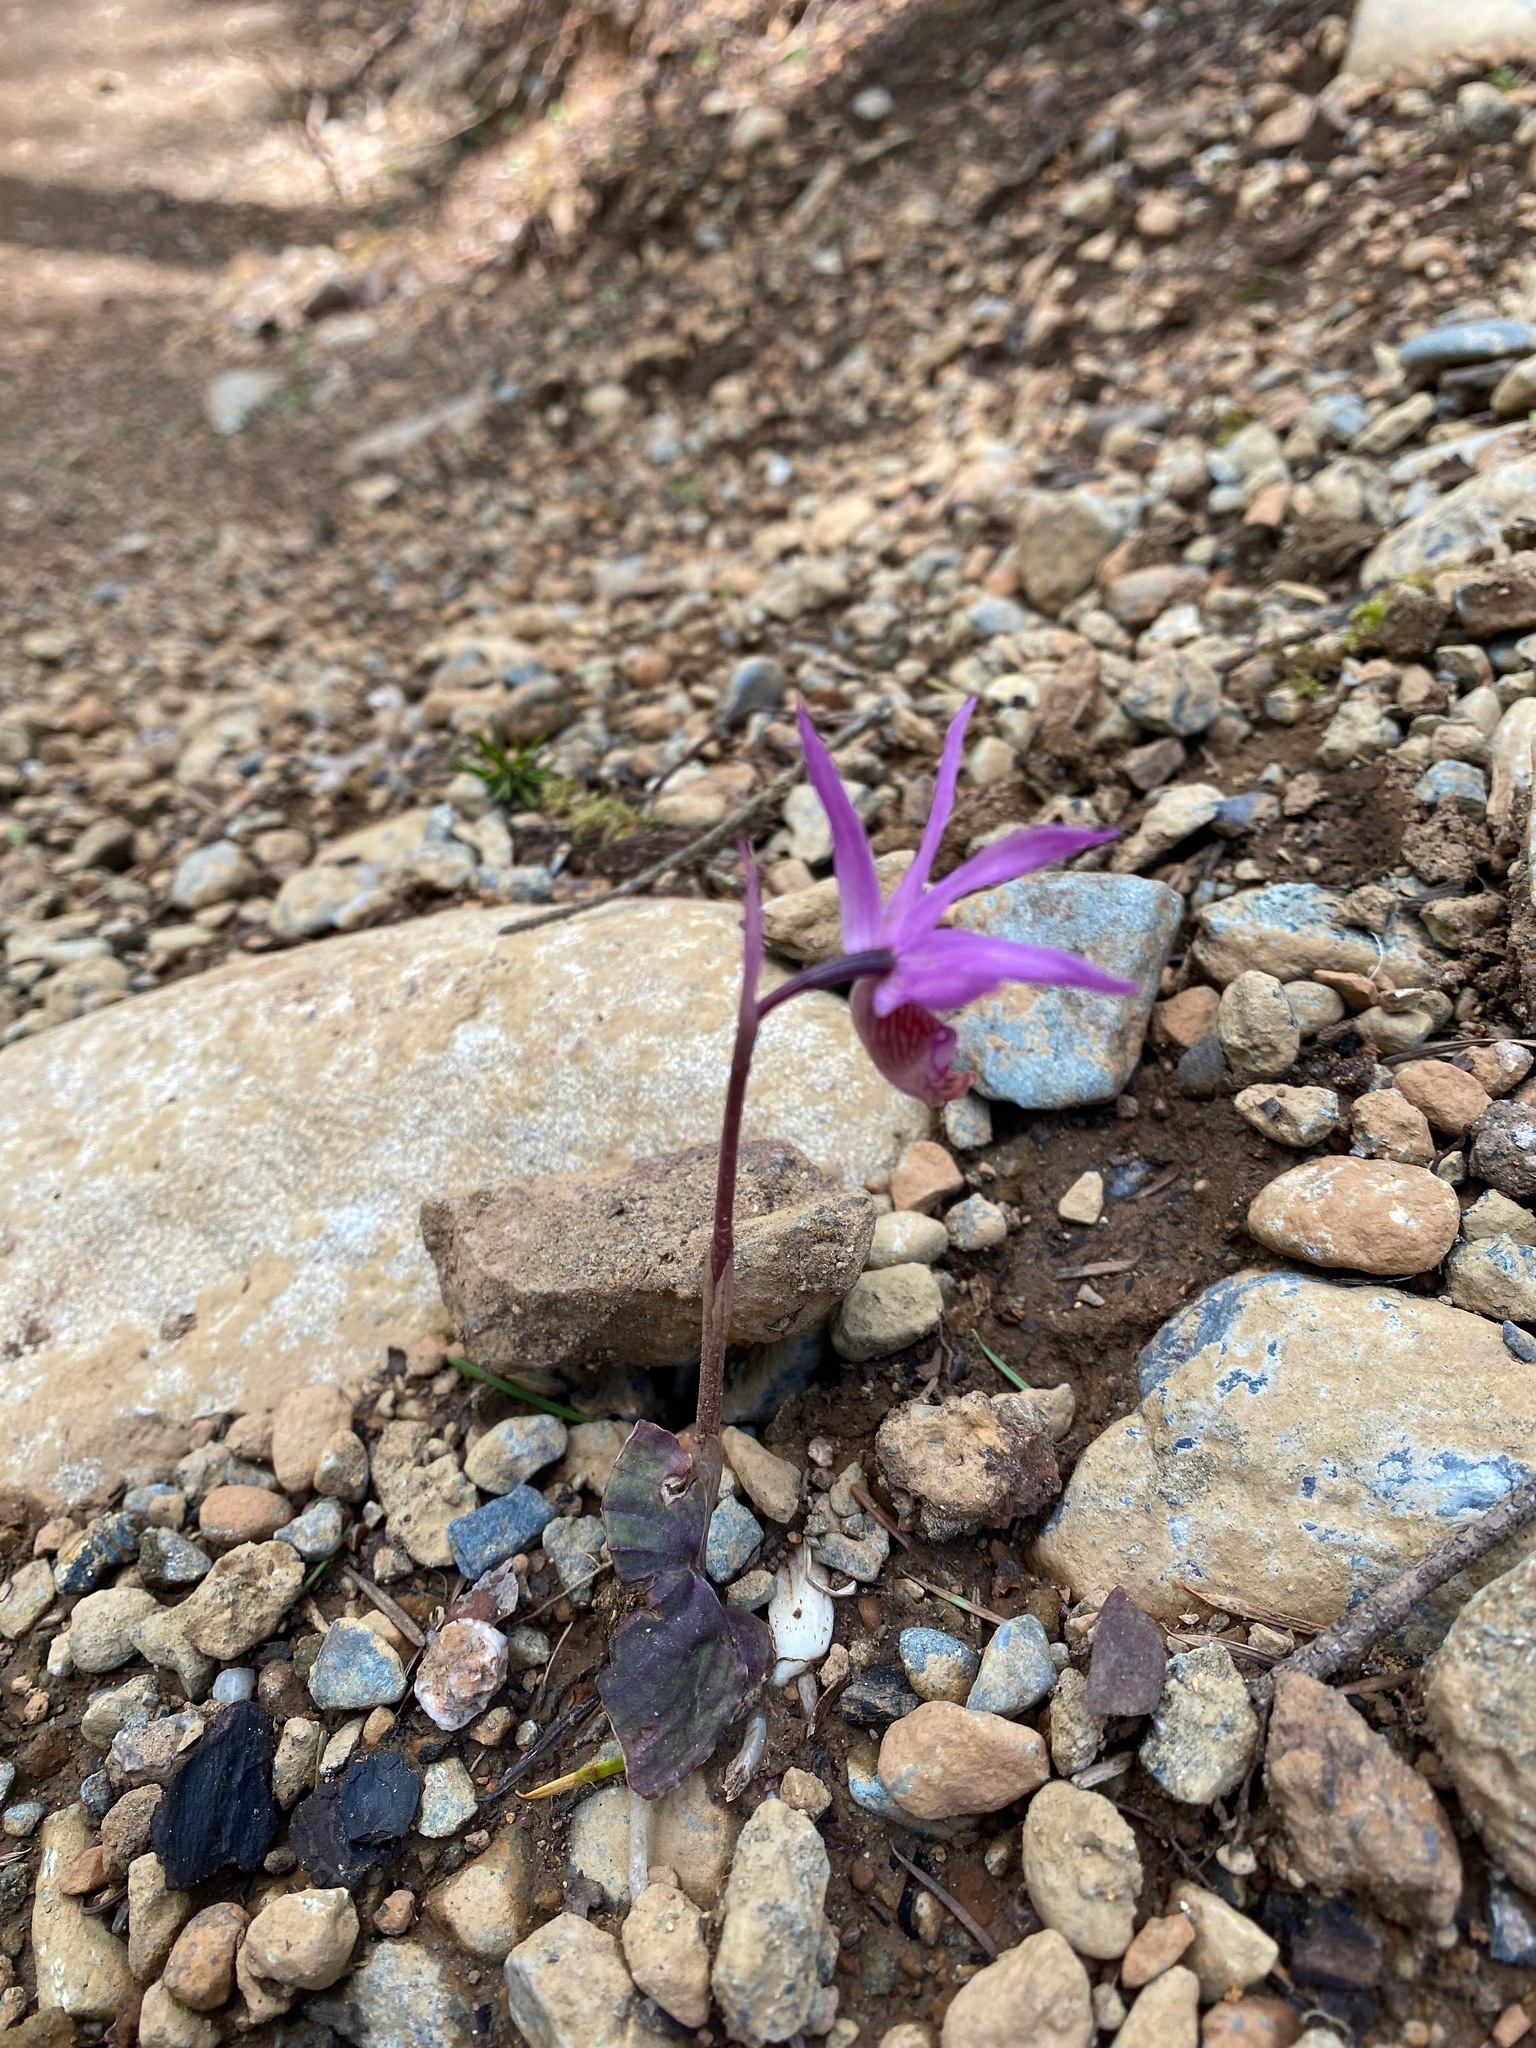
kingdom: Plantae
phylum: Tracheophyta
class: Liliopsida
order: Asparagales
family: Orchidaceae
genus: Calypso
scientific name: Calypso bulbosa
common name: Calypso
